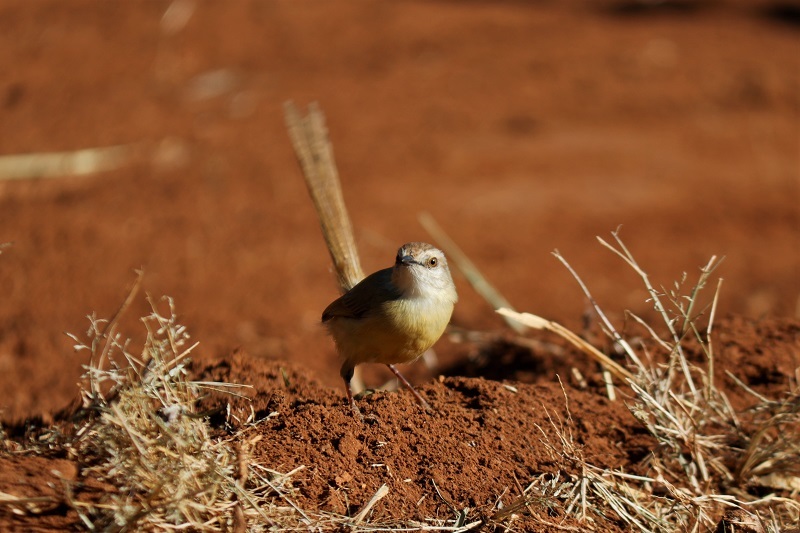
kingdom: Animalia
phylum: Chordata
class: Aves
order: Passeriformes
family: Cisticolidae
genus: Prinia
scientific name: Prinia flavicans
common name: Black-chested prinia
